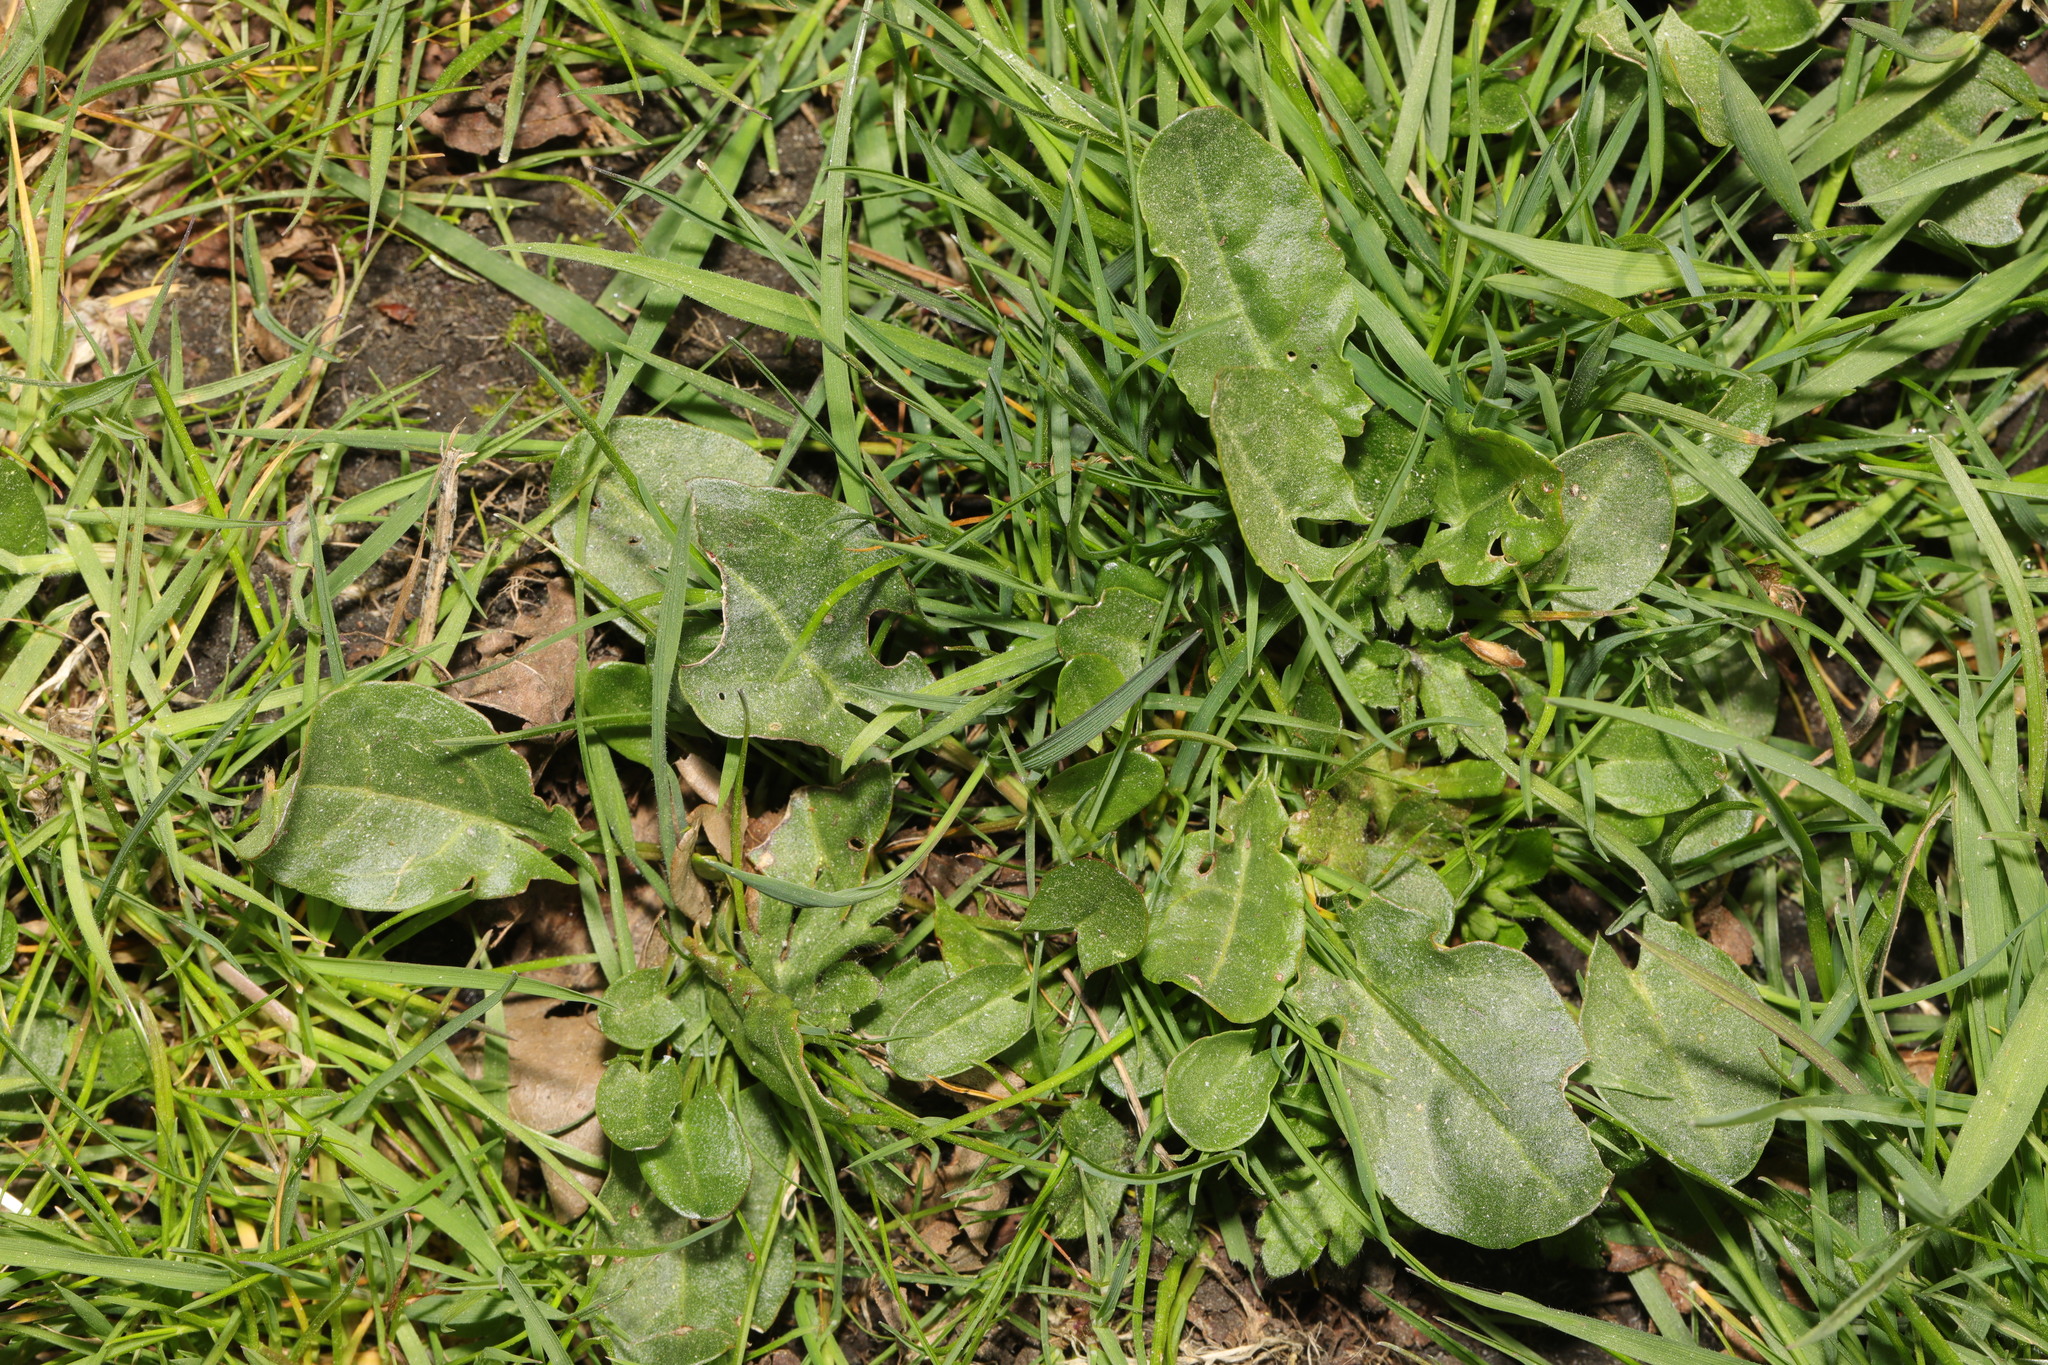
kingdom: Plantae
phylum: Tracheophyta
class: Magnoliopsida
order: Caryophyllales
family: Polygonaceae
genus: Rumex
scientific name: Rumex acetosa
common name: Garden sorrel
